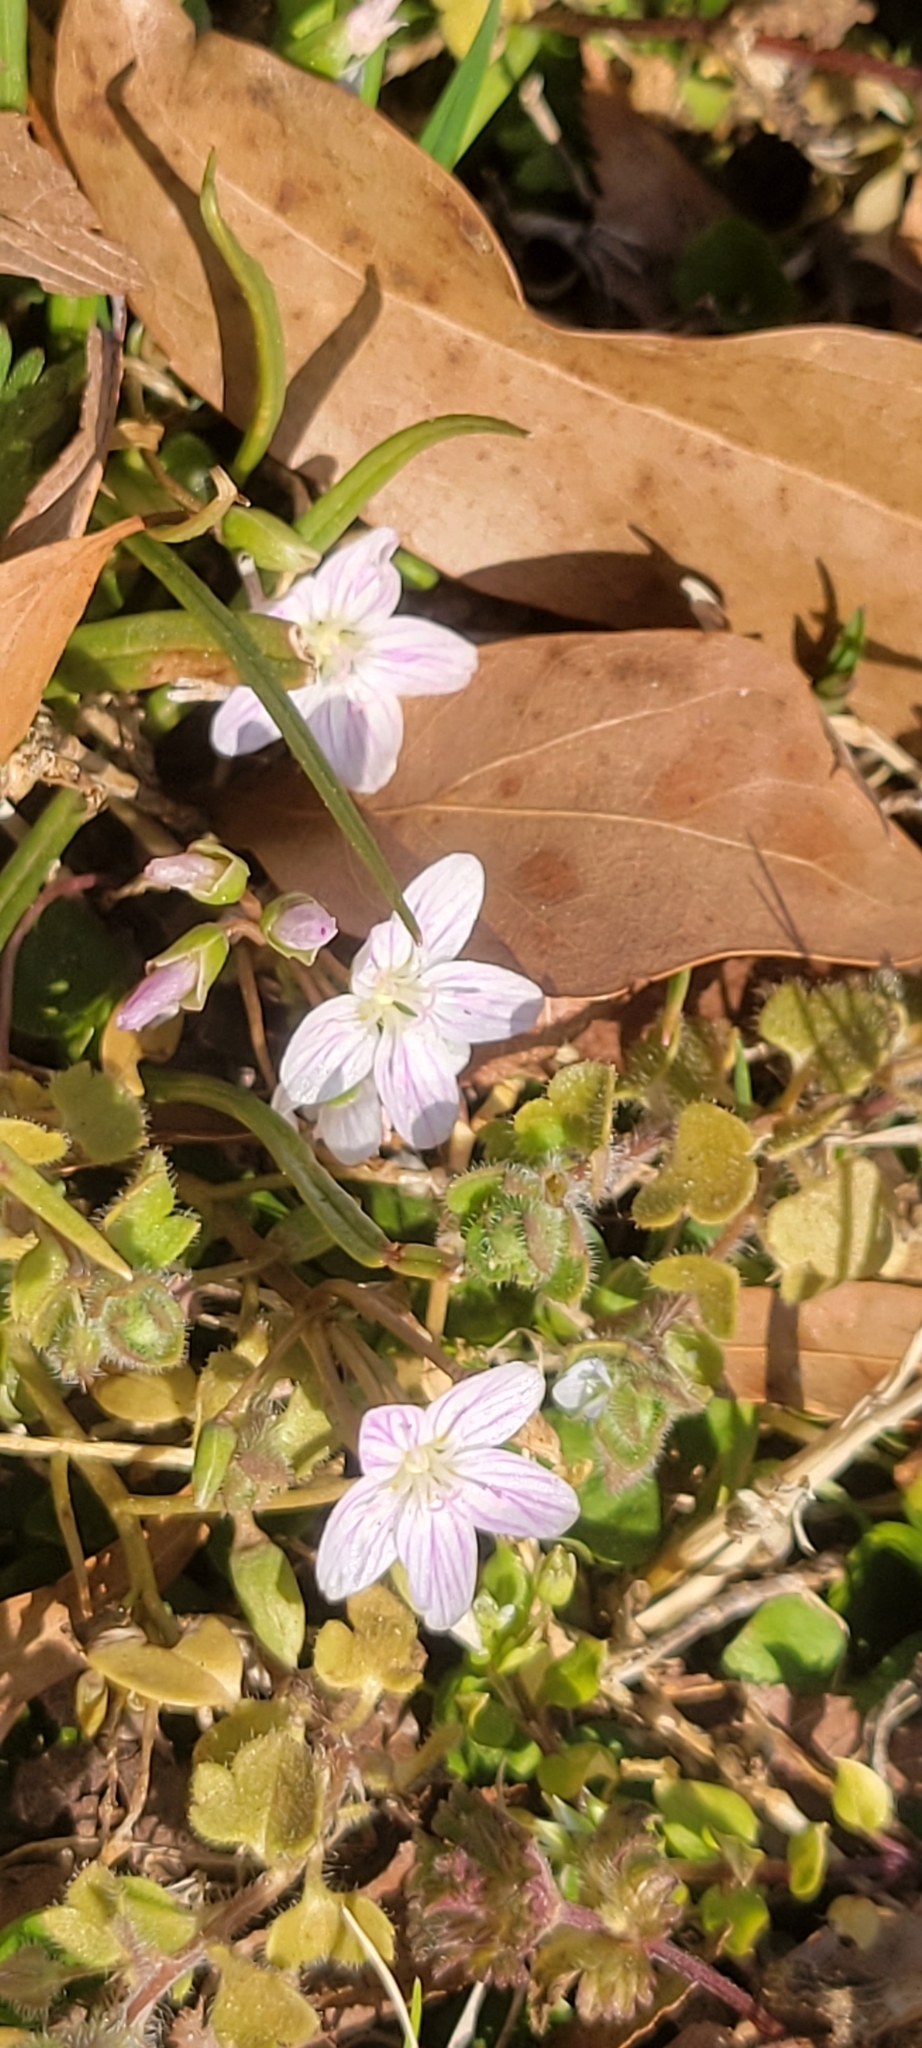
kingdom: Plantae
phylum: Tracheophyta
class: Magnoliopsida
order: Caryophyllales
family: Montiaceae
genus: Claytonia
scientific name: Claytonia virginica
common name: Virginia springbeauty
